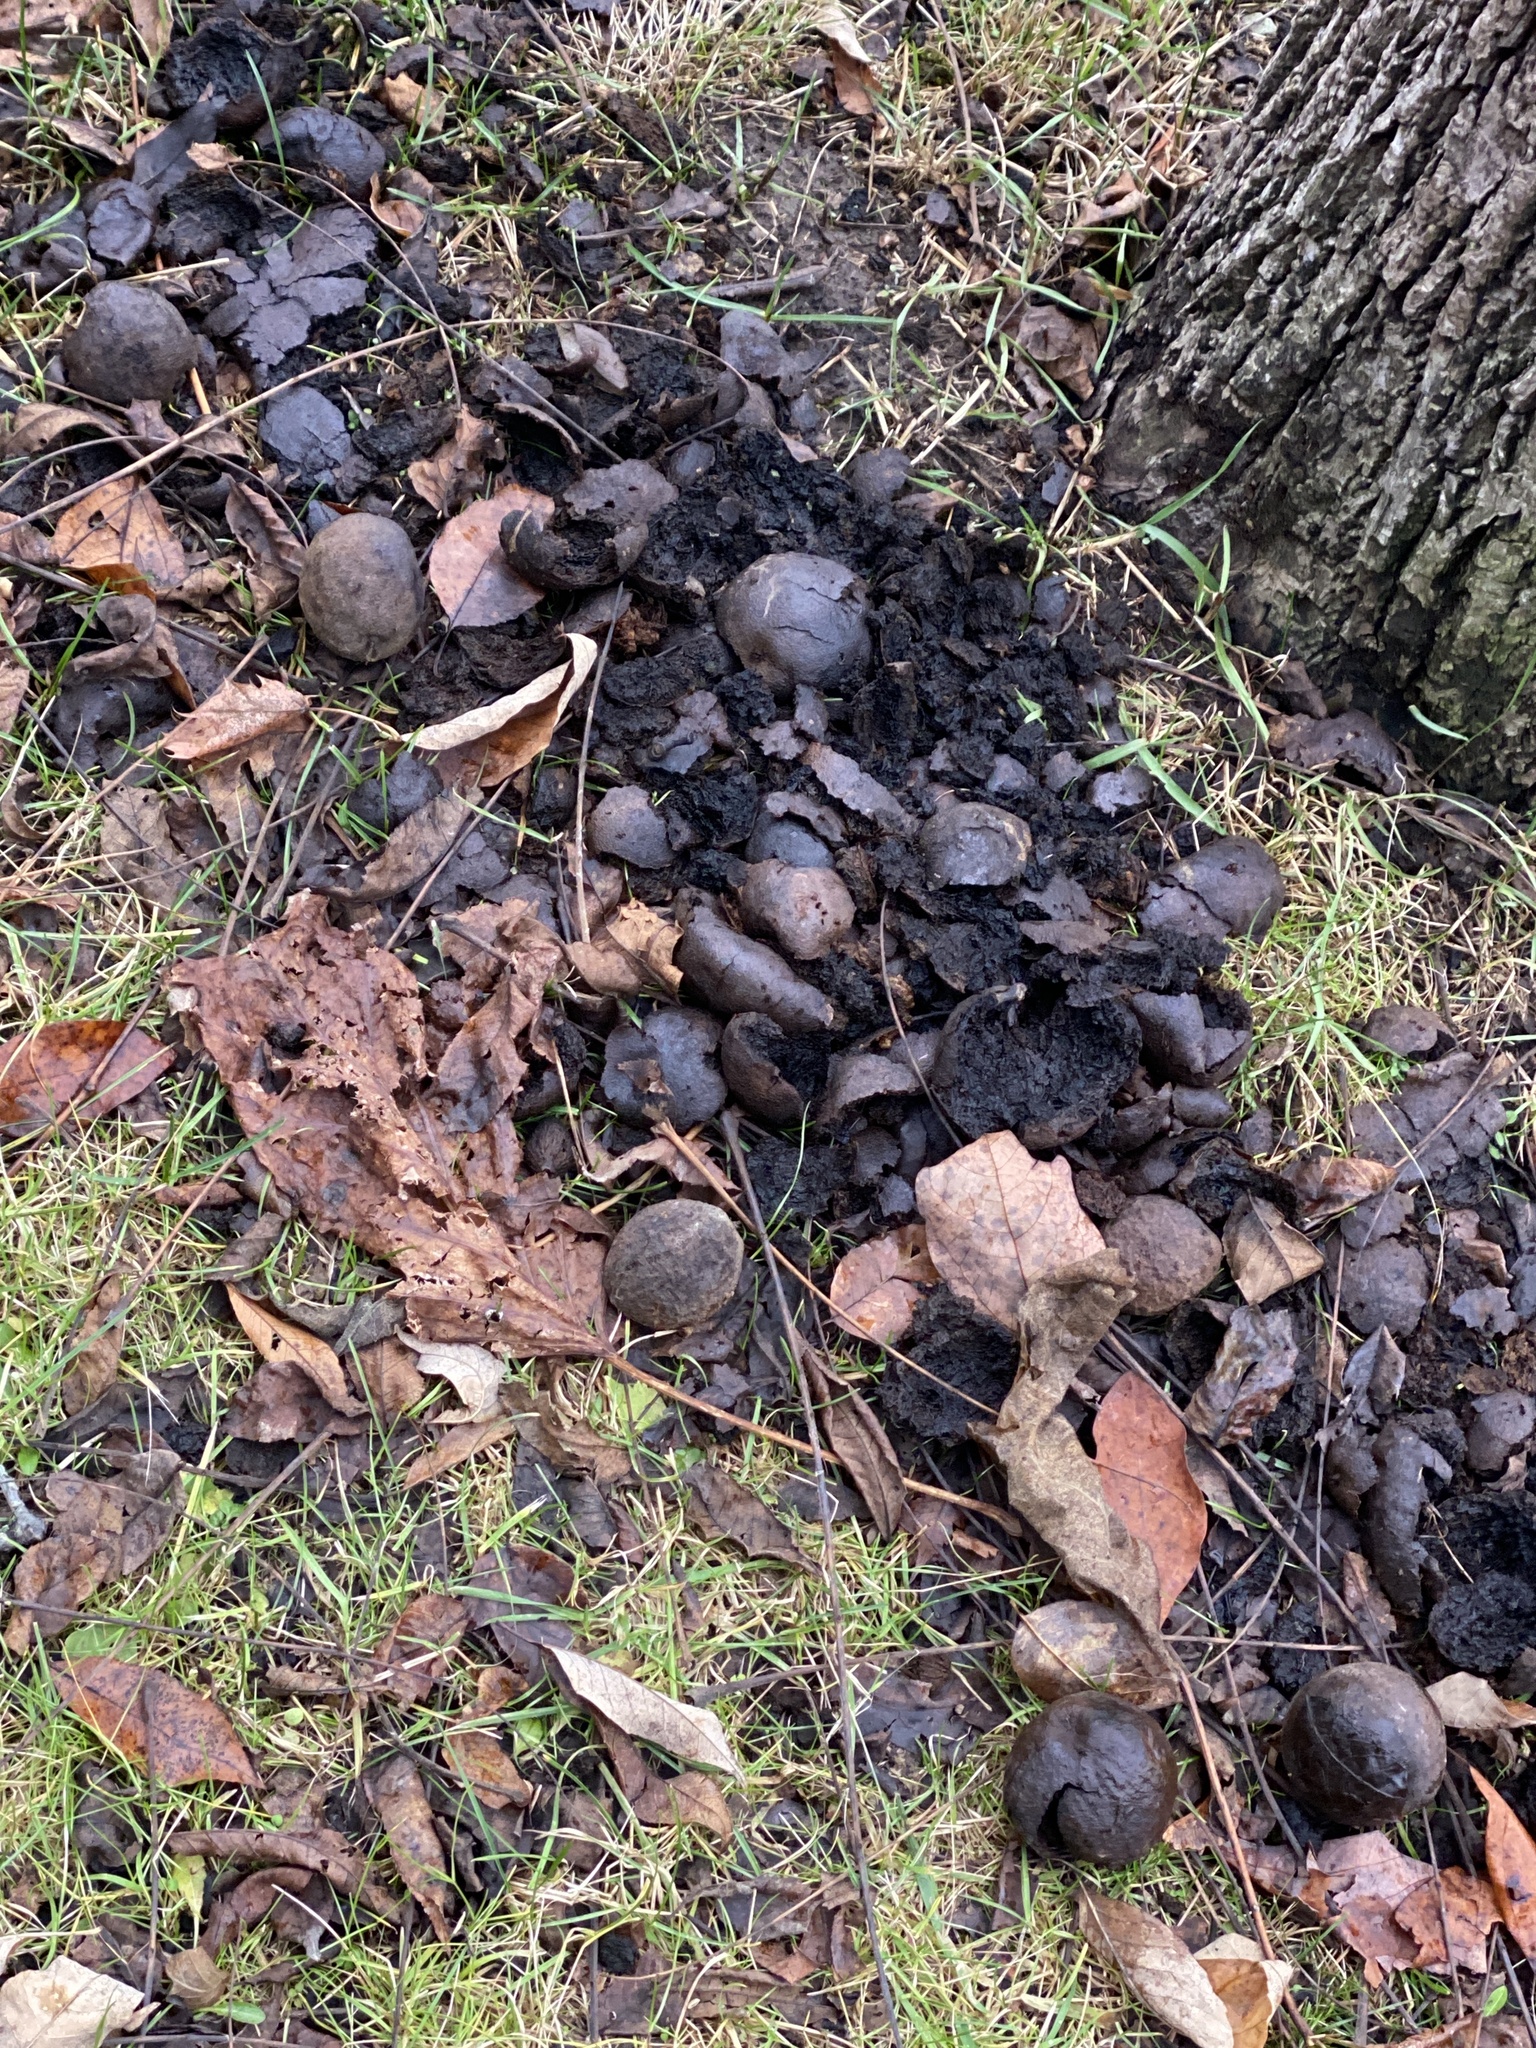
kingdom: Plantae
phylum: Tracheophyta
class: Magnoliopsida
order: Fagales
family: Juglandaceae
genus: Juglans
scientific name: Juglans nigra
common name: Black walnut
